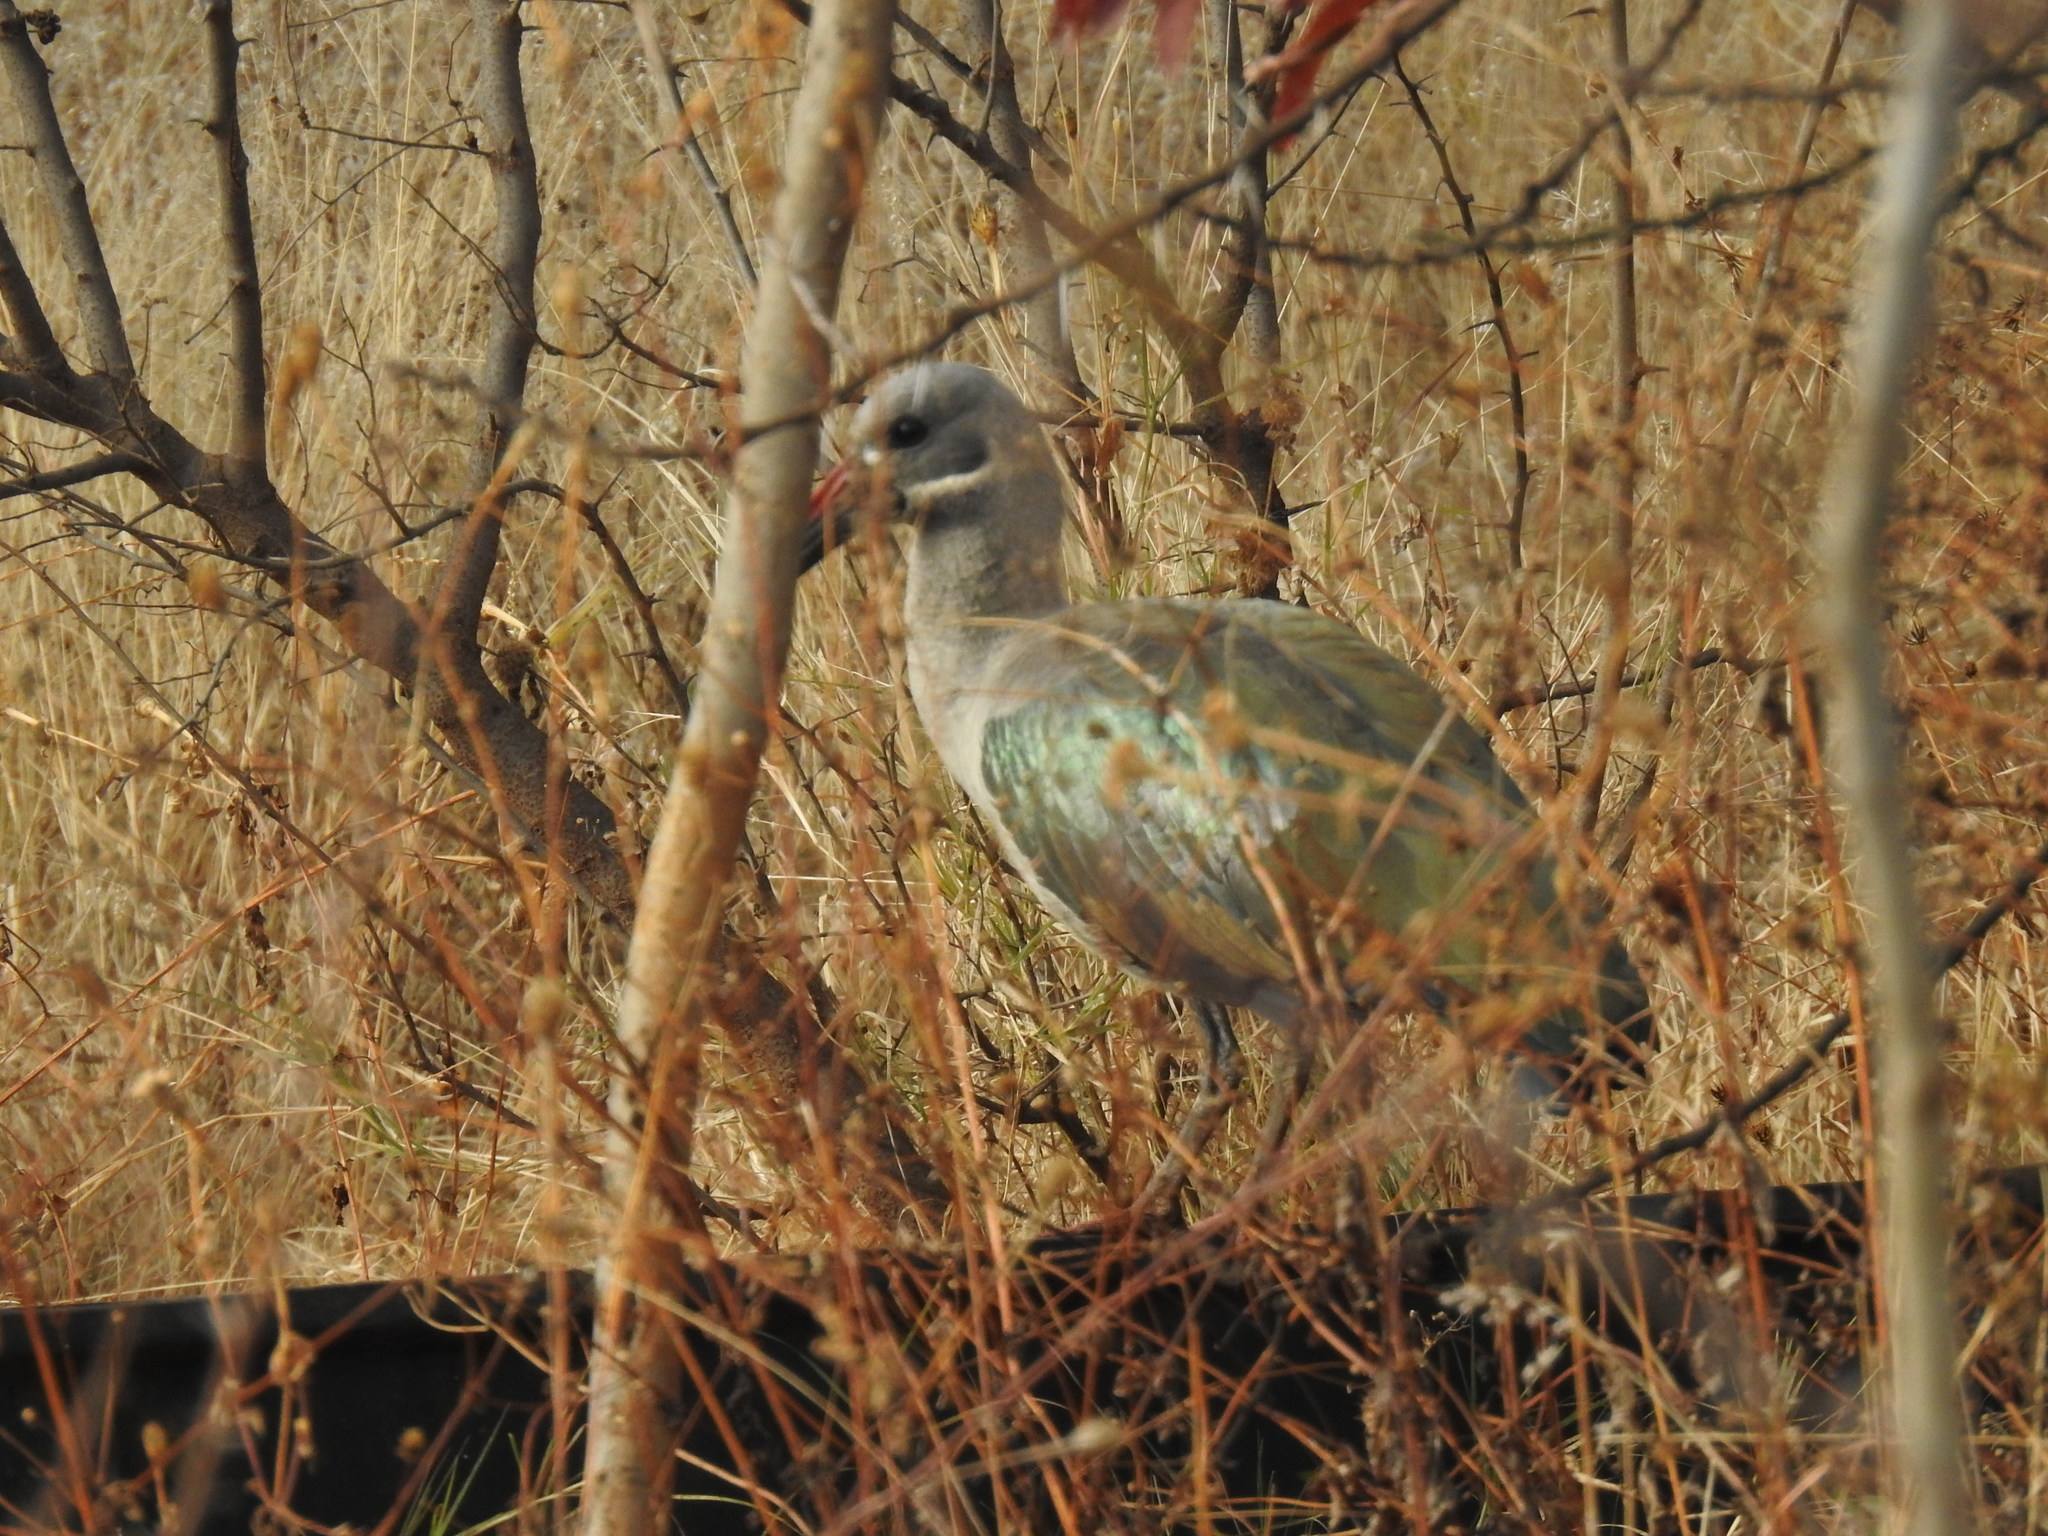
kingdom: Animalia
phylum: Chordata
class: Aves
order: Pelecaniformes
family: Threskiornithidae
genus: Bostrychia
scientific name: Bostrychia hagedash
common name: Hadada ibis
